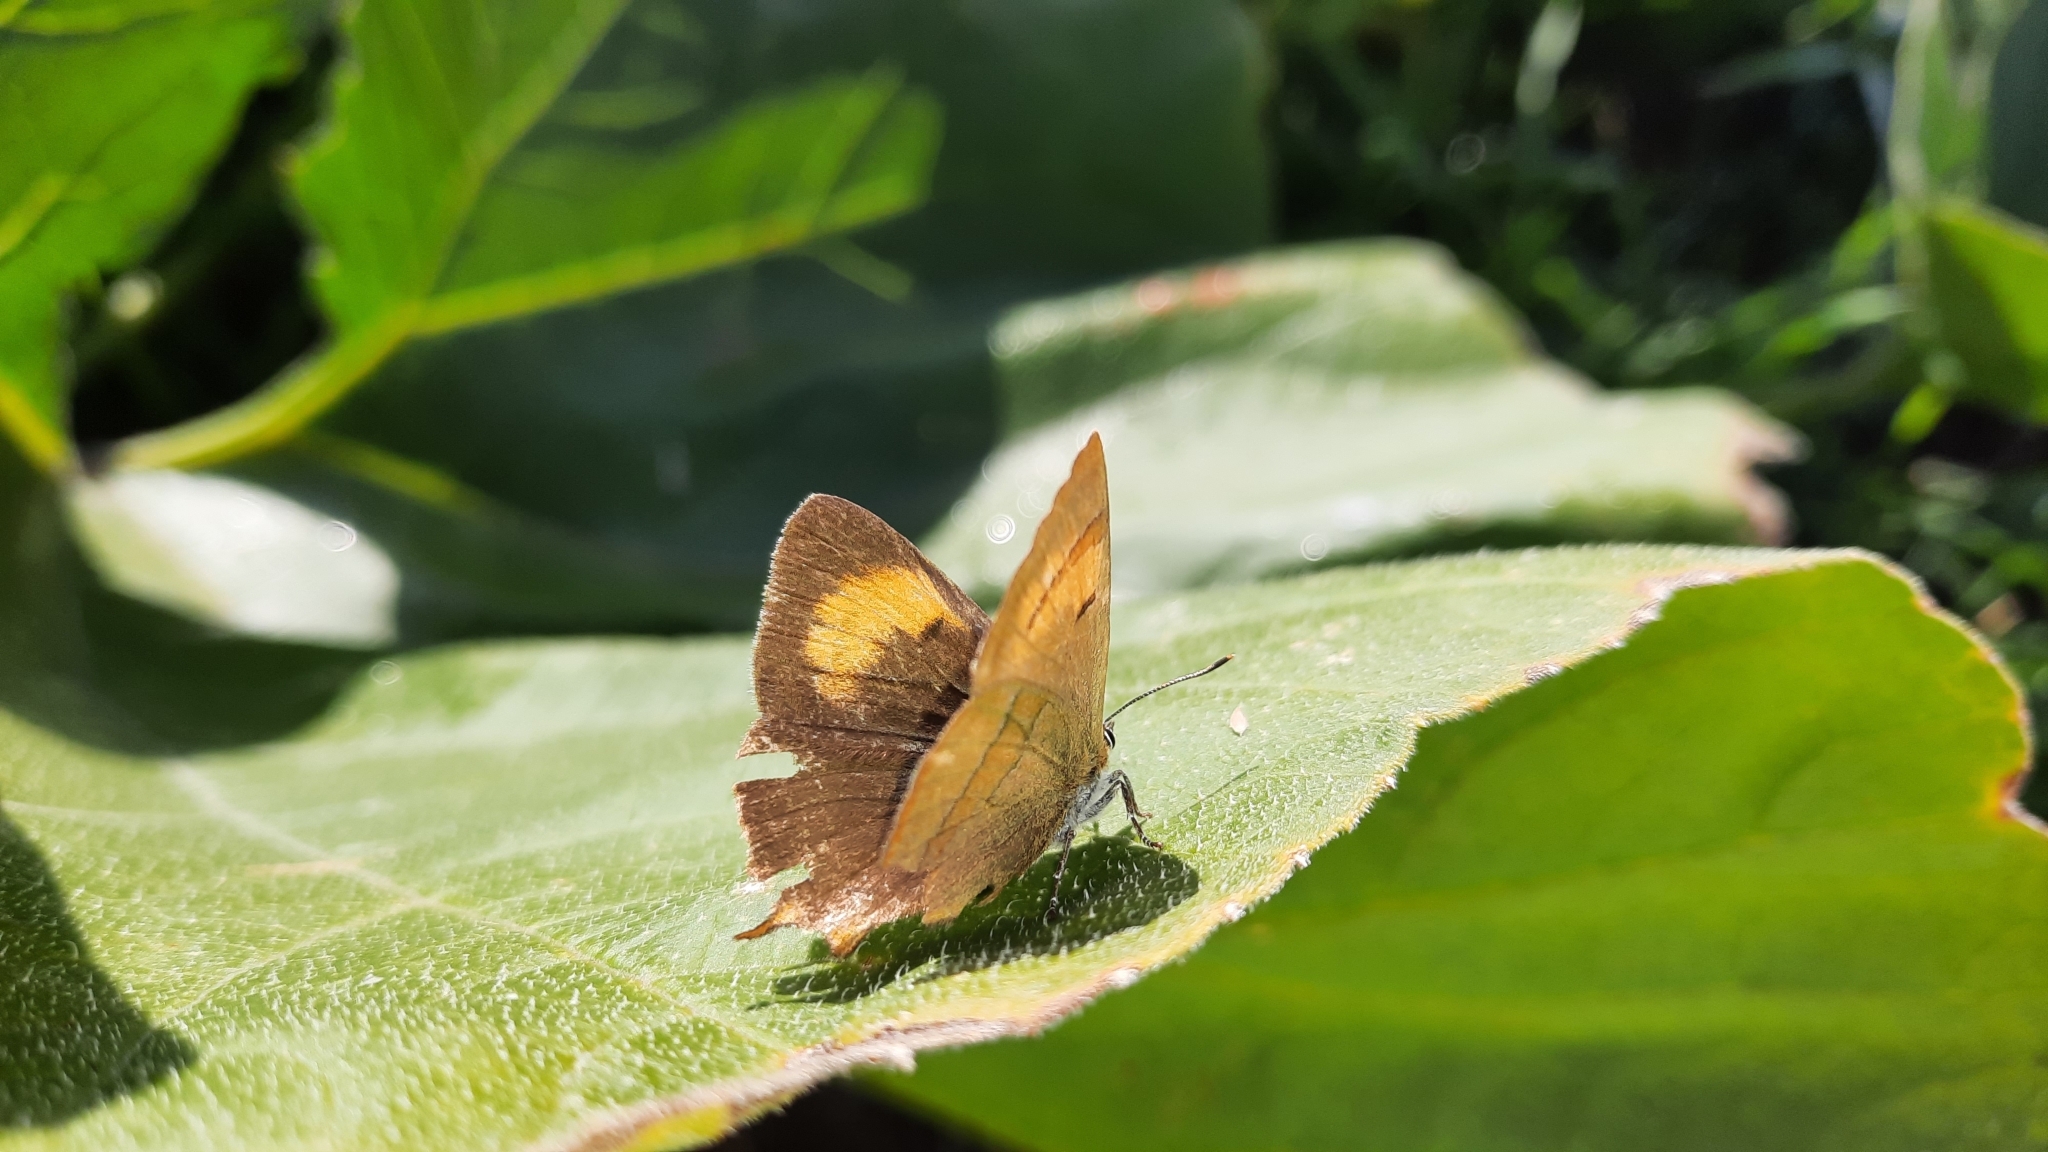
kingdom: Animalia
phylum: Arthropoda
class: Insecta
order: Lepidoptera
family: Lycaenidae
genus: Thecla
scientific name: Thecla betulae
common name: Brown hairstreak
